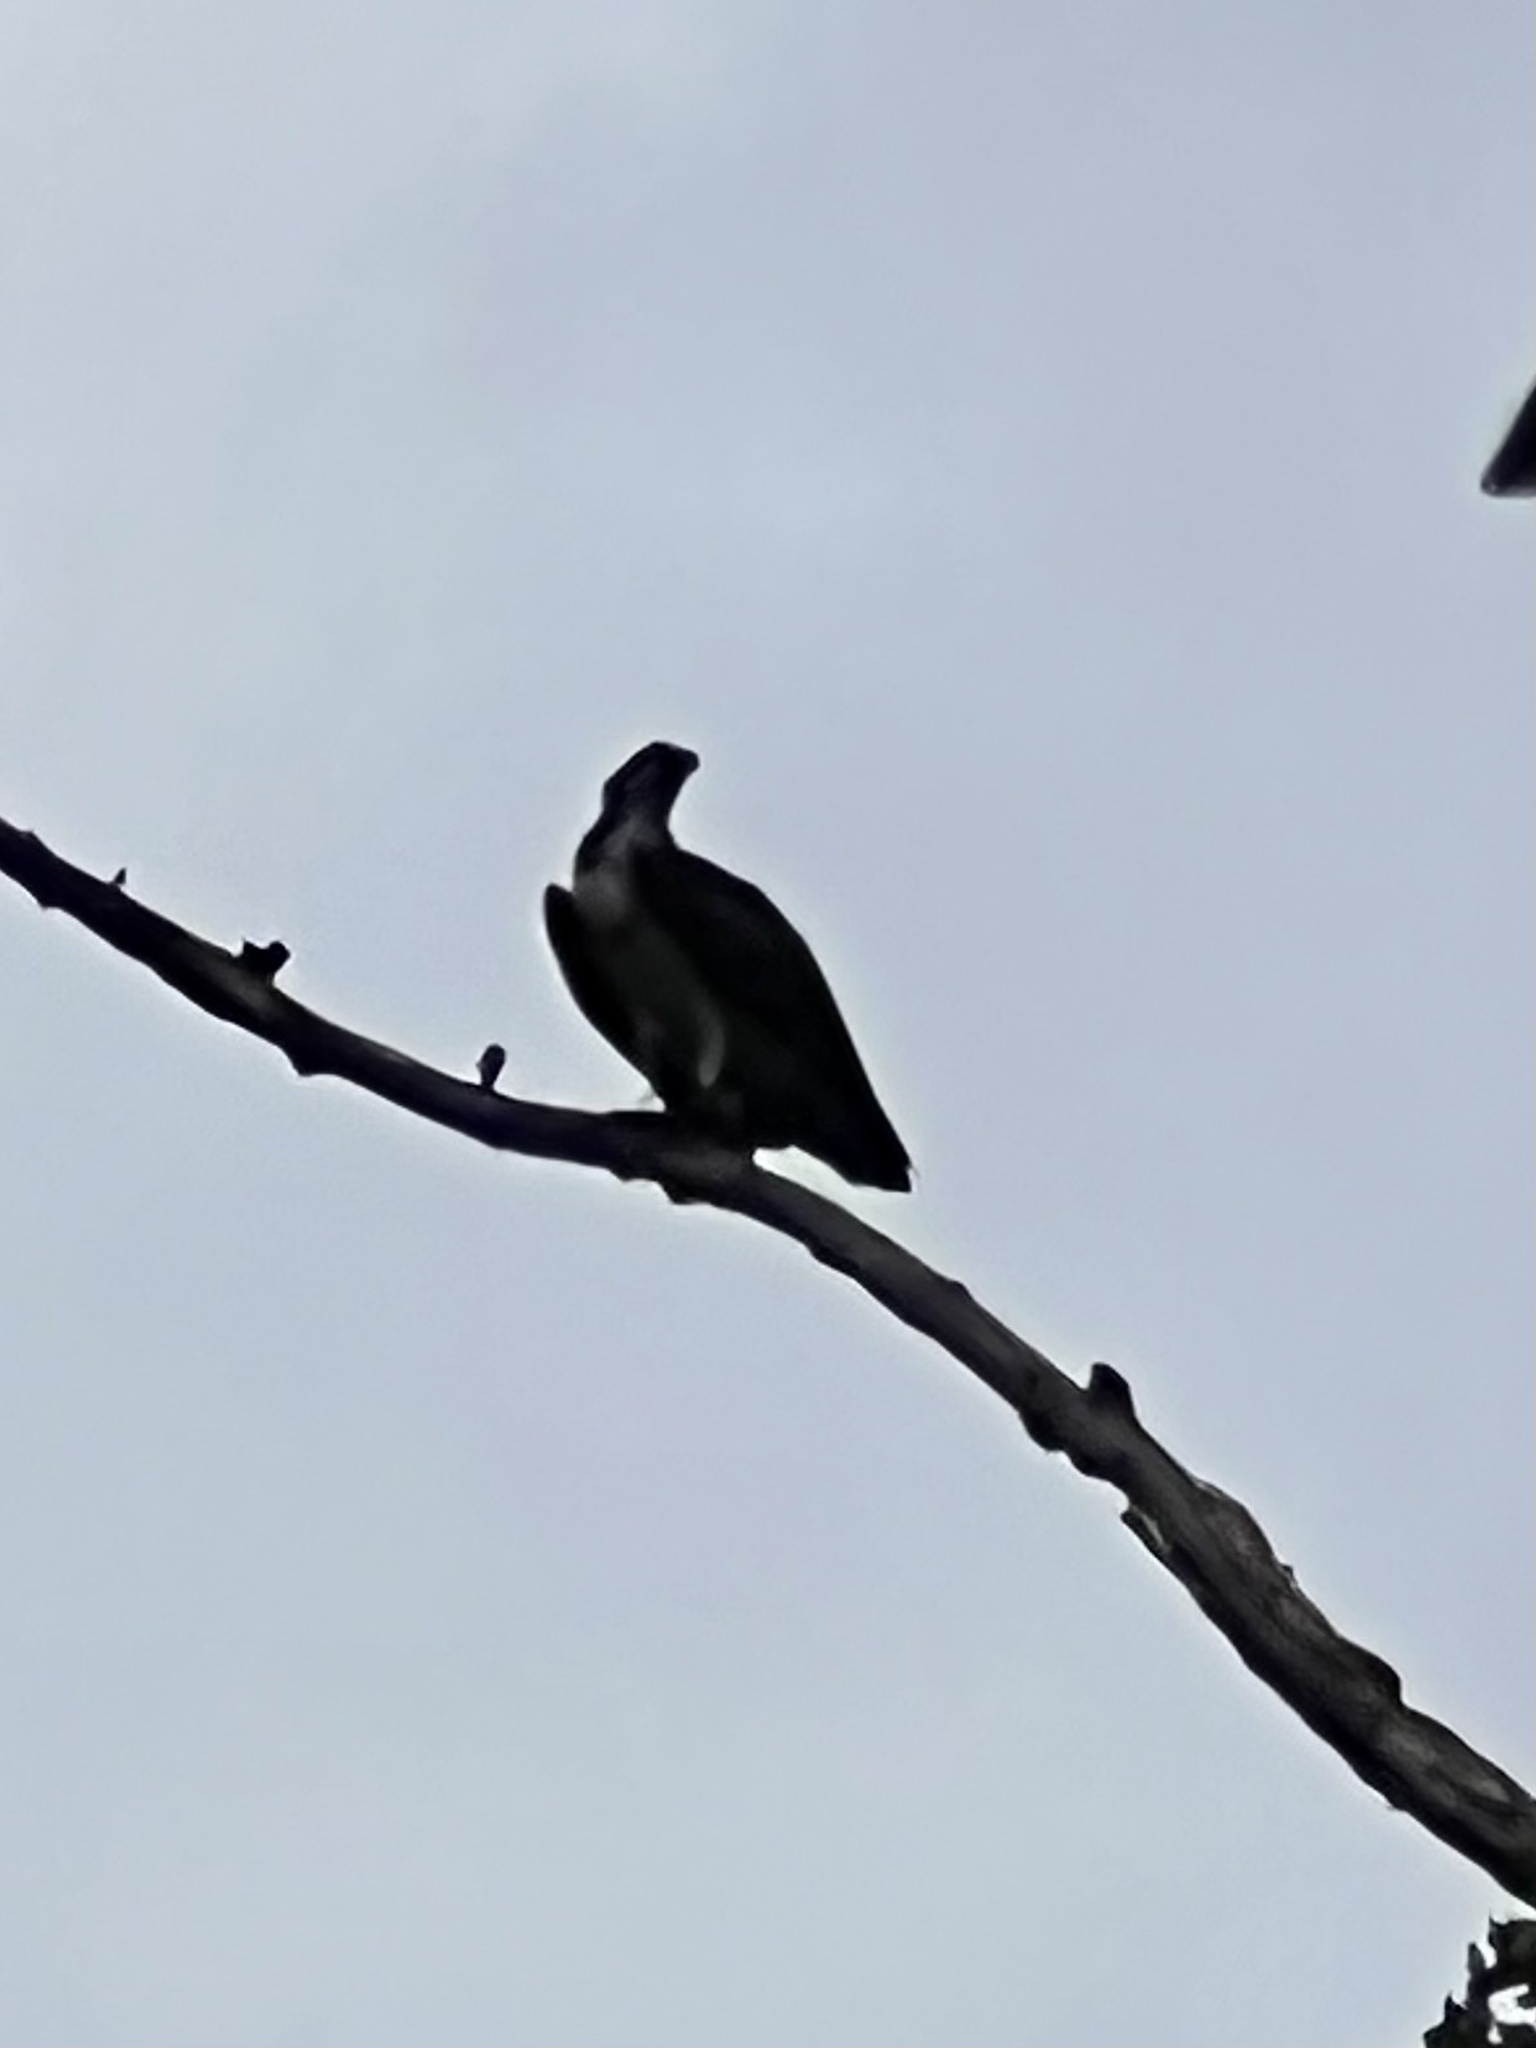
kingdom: Animalia
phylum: Chordata
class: Aves
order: Accipitriformes
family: Pandionidae
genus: Pandion
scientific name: Pandion haliaetus
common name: Osprey
